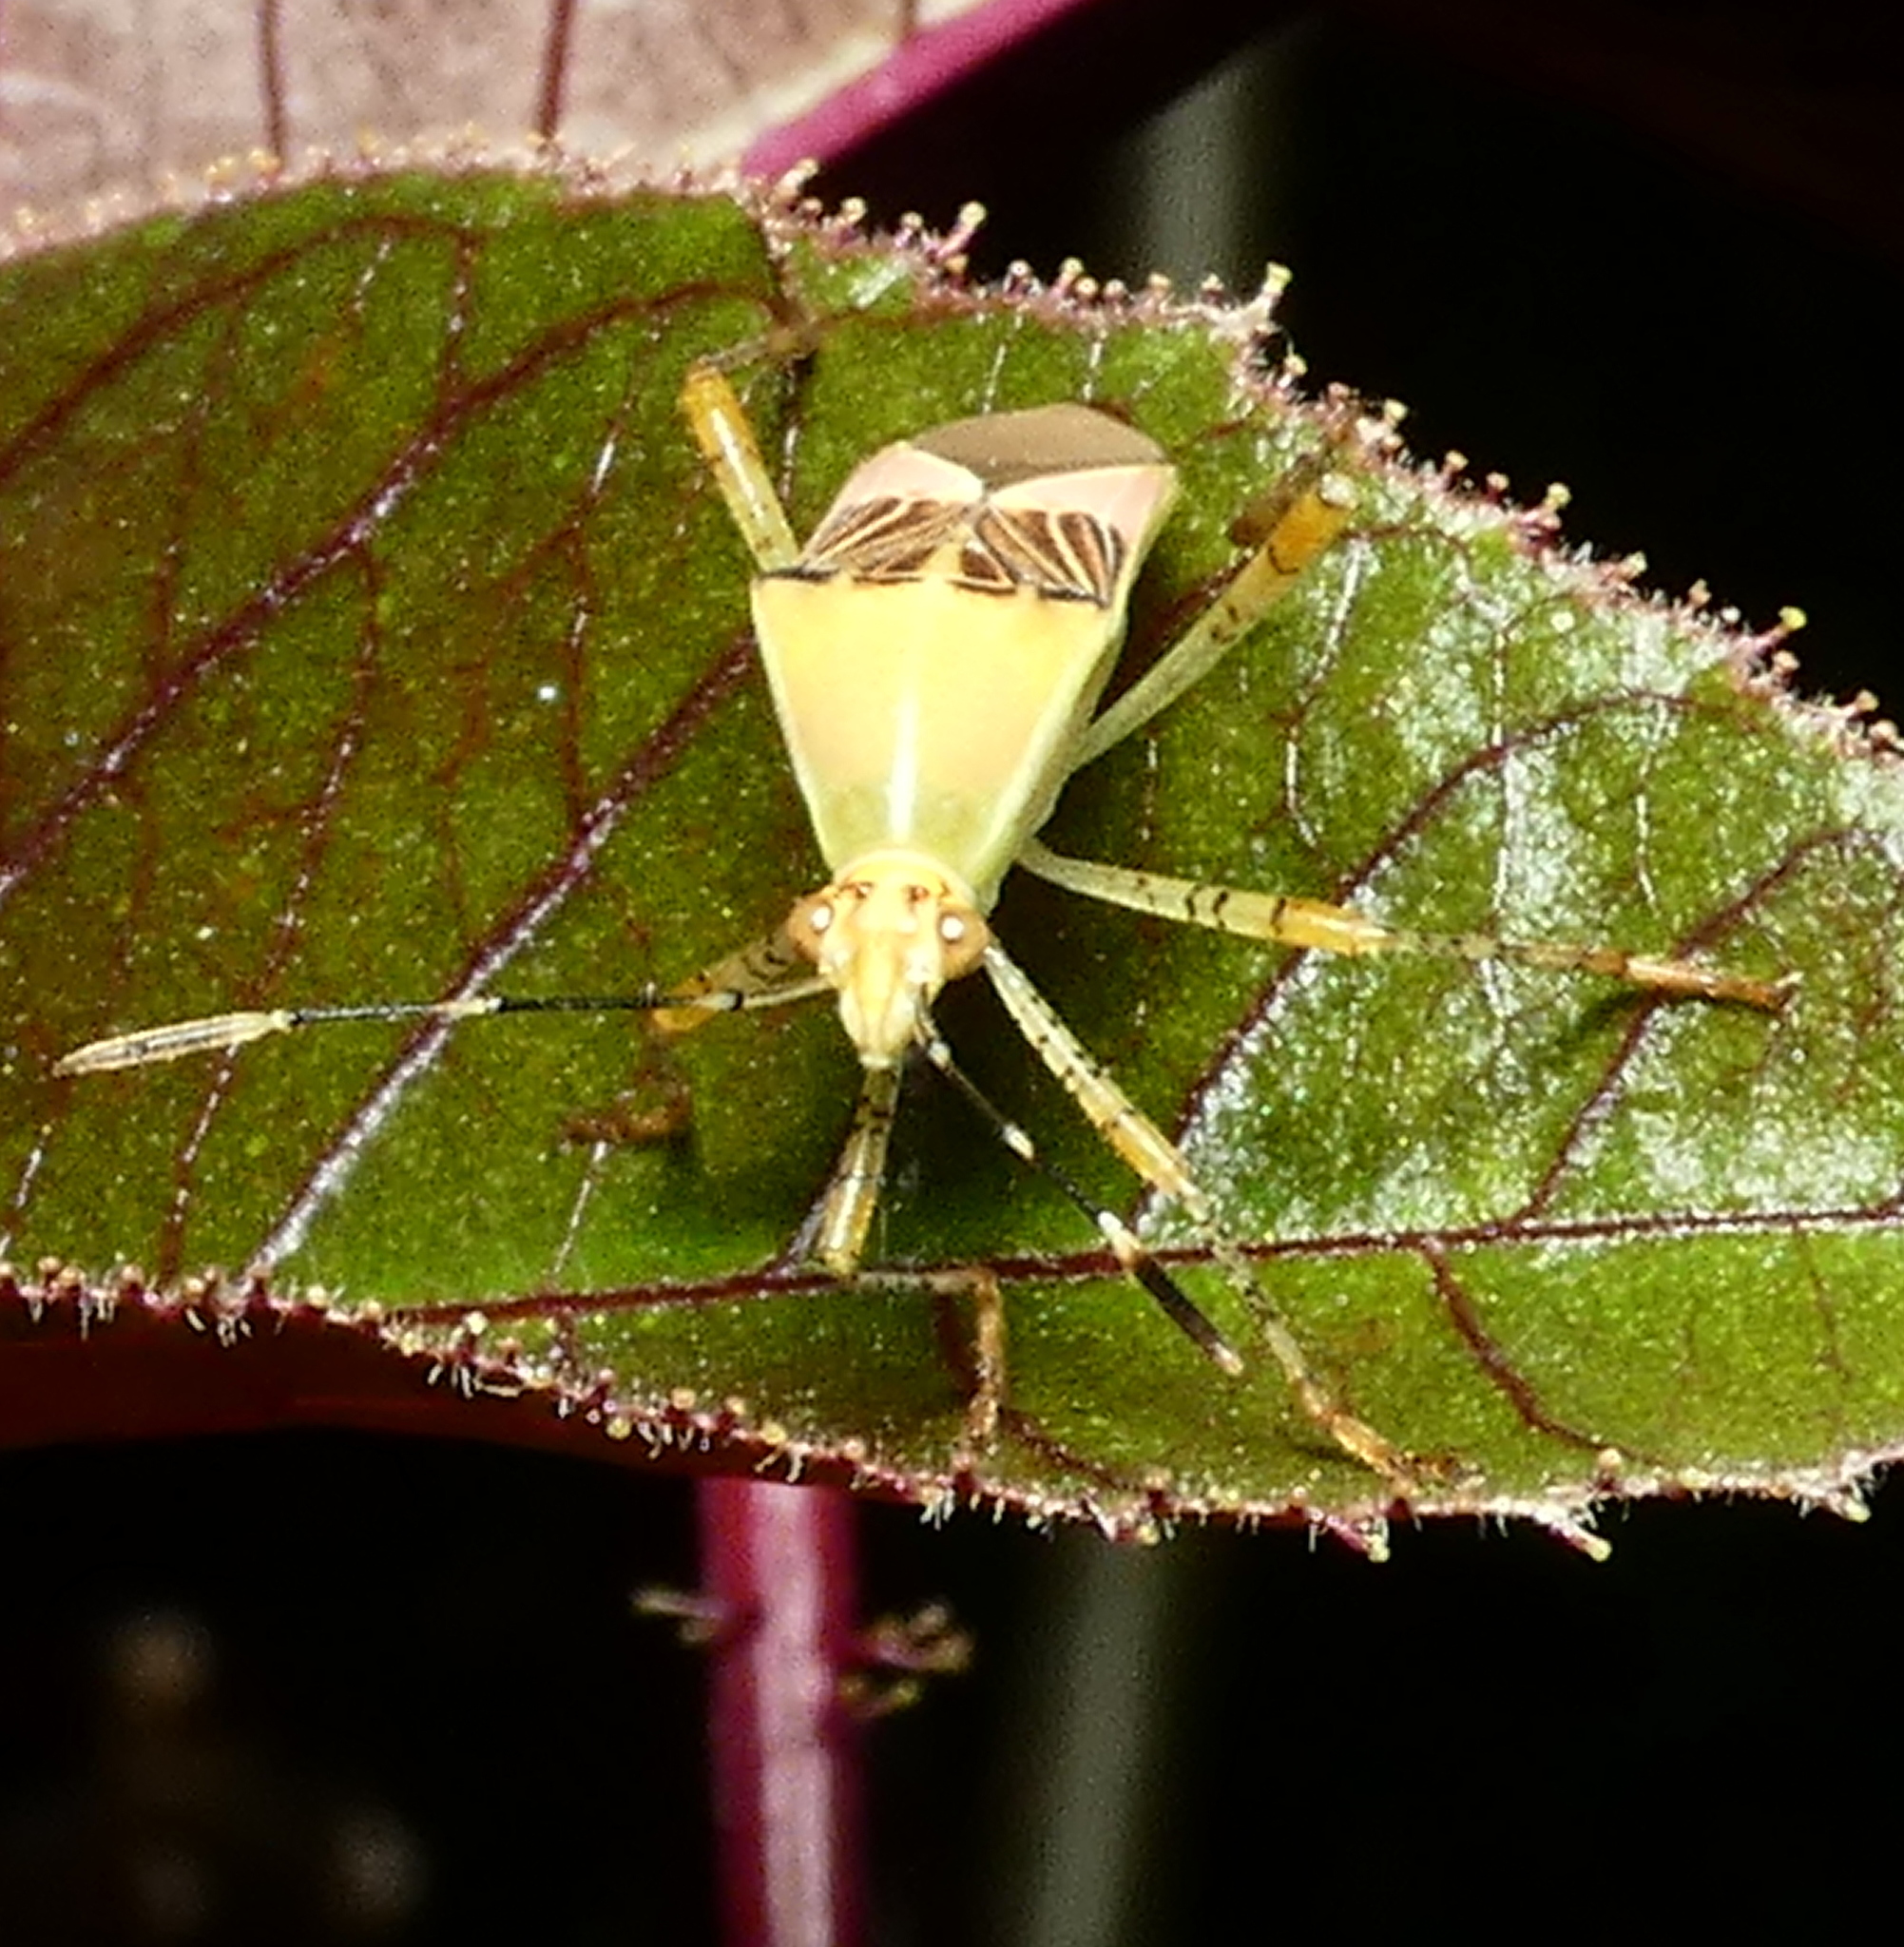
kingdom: Animalia
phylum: Arthropoda
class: Insecta
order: Hemiptera
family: Coreidae
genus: Hypselonotus
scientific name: Hypselonotus fulvus
